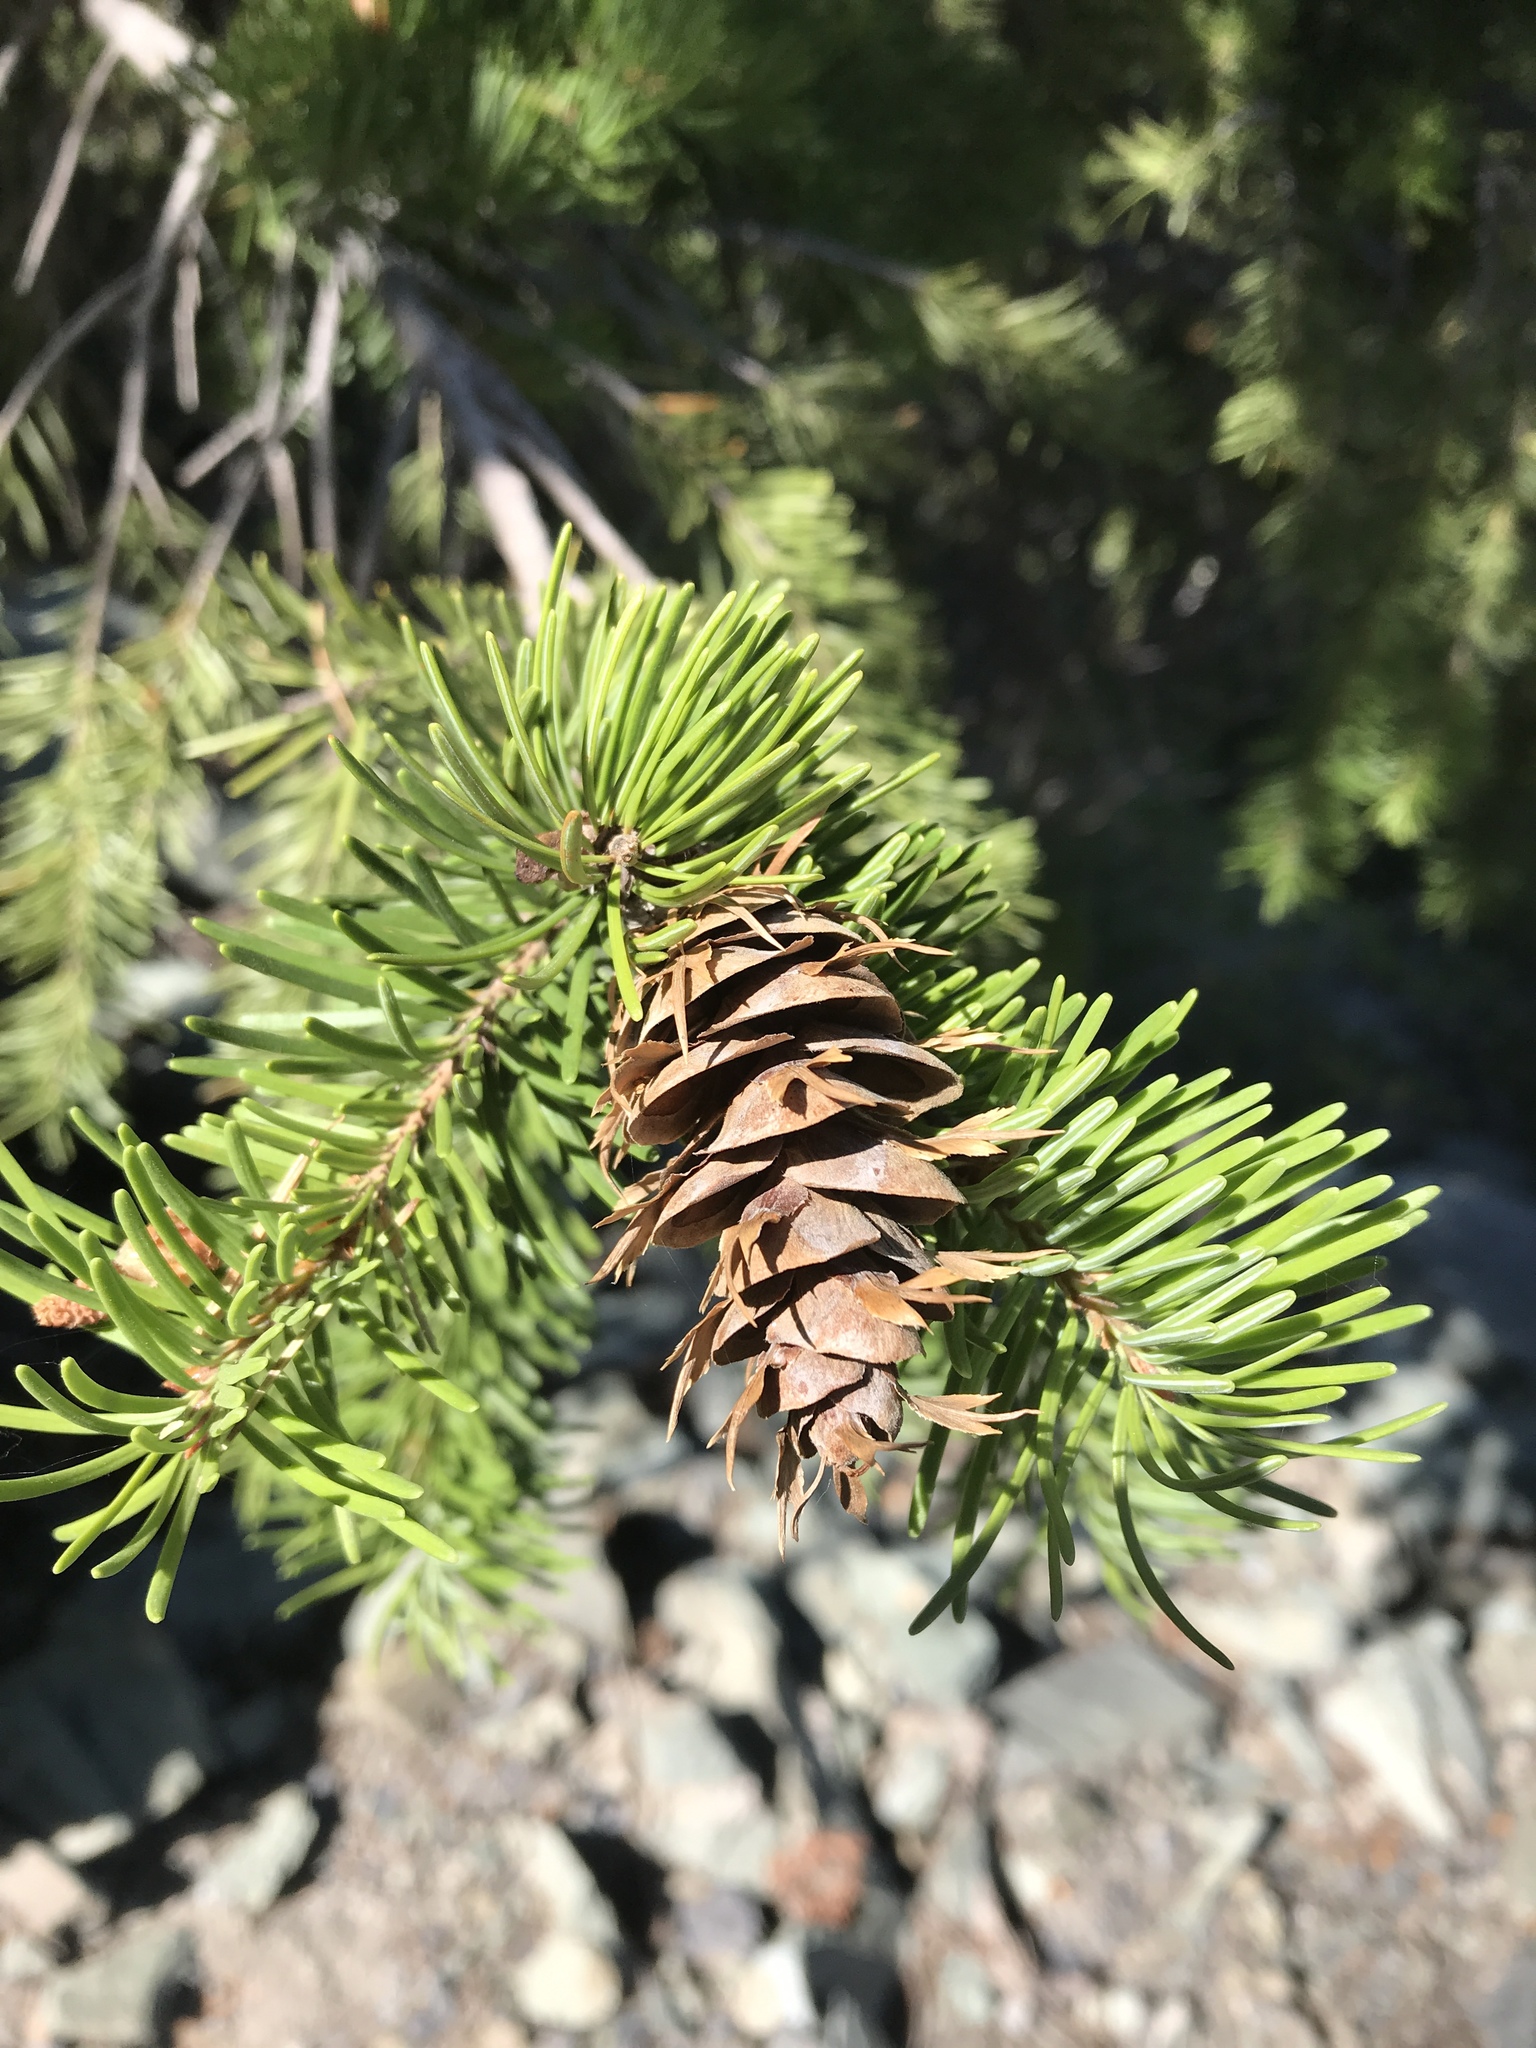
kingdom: Plantae
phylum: Tracheophyta
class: Pinopsida
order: Pinales
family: Pinaceae
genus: Pseudotsuga
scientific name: Pseudotsuga menziesii
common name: Douglas fir
